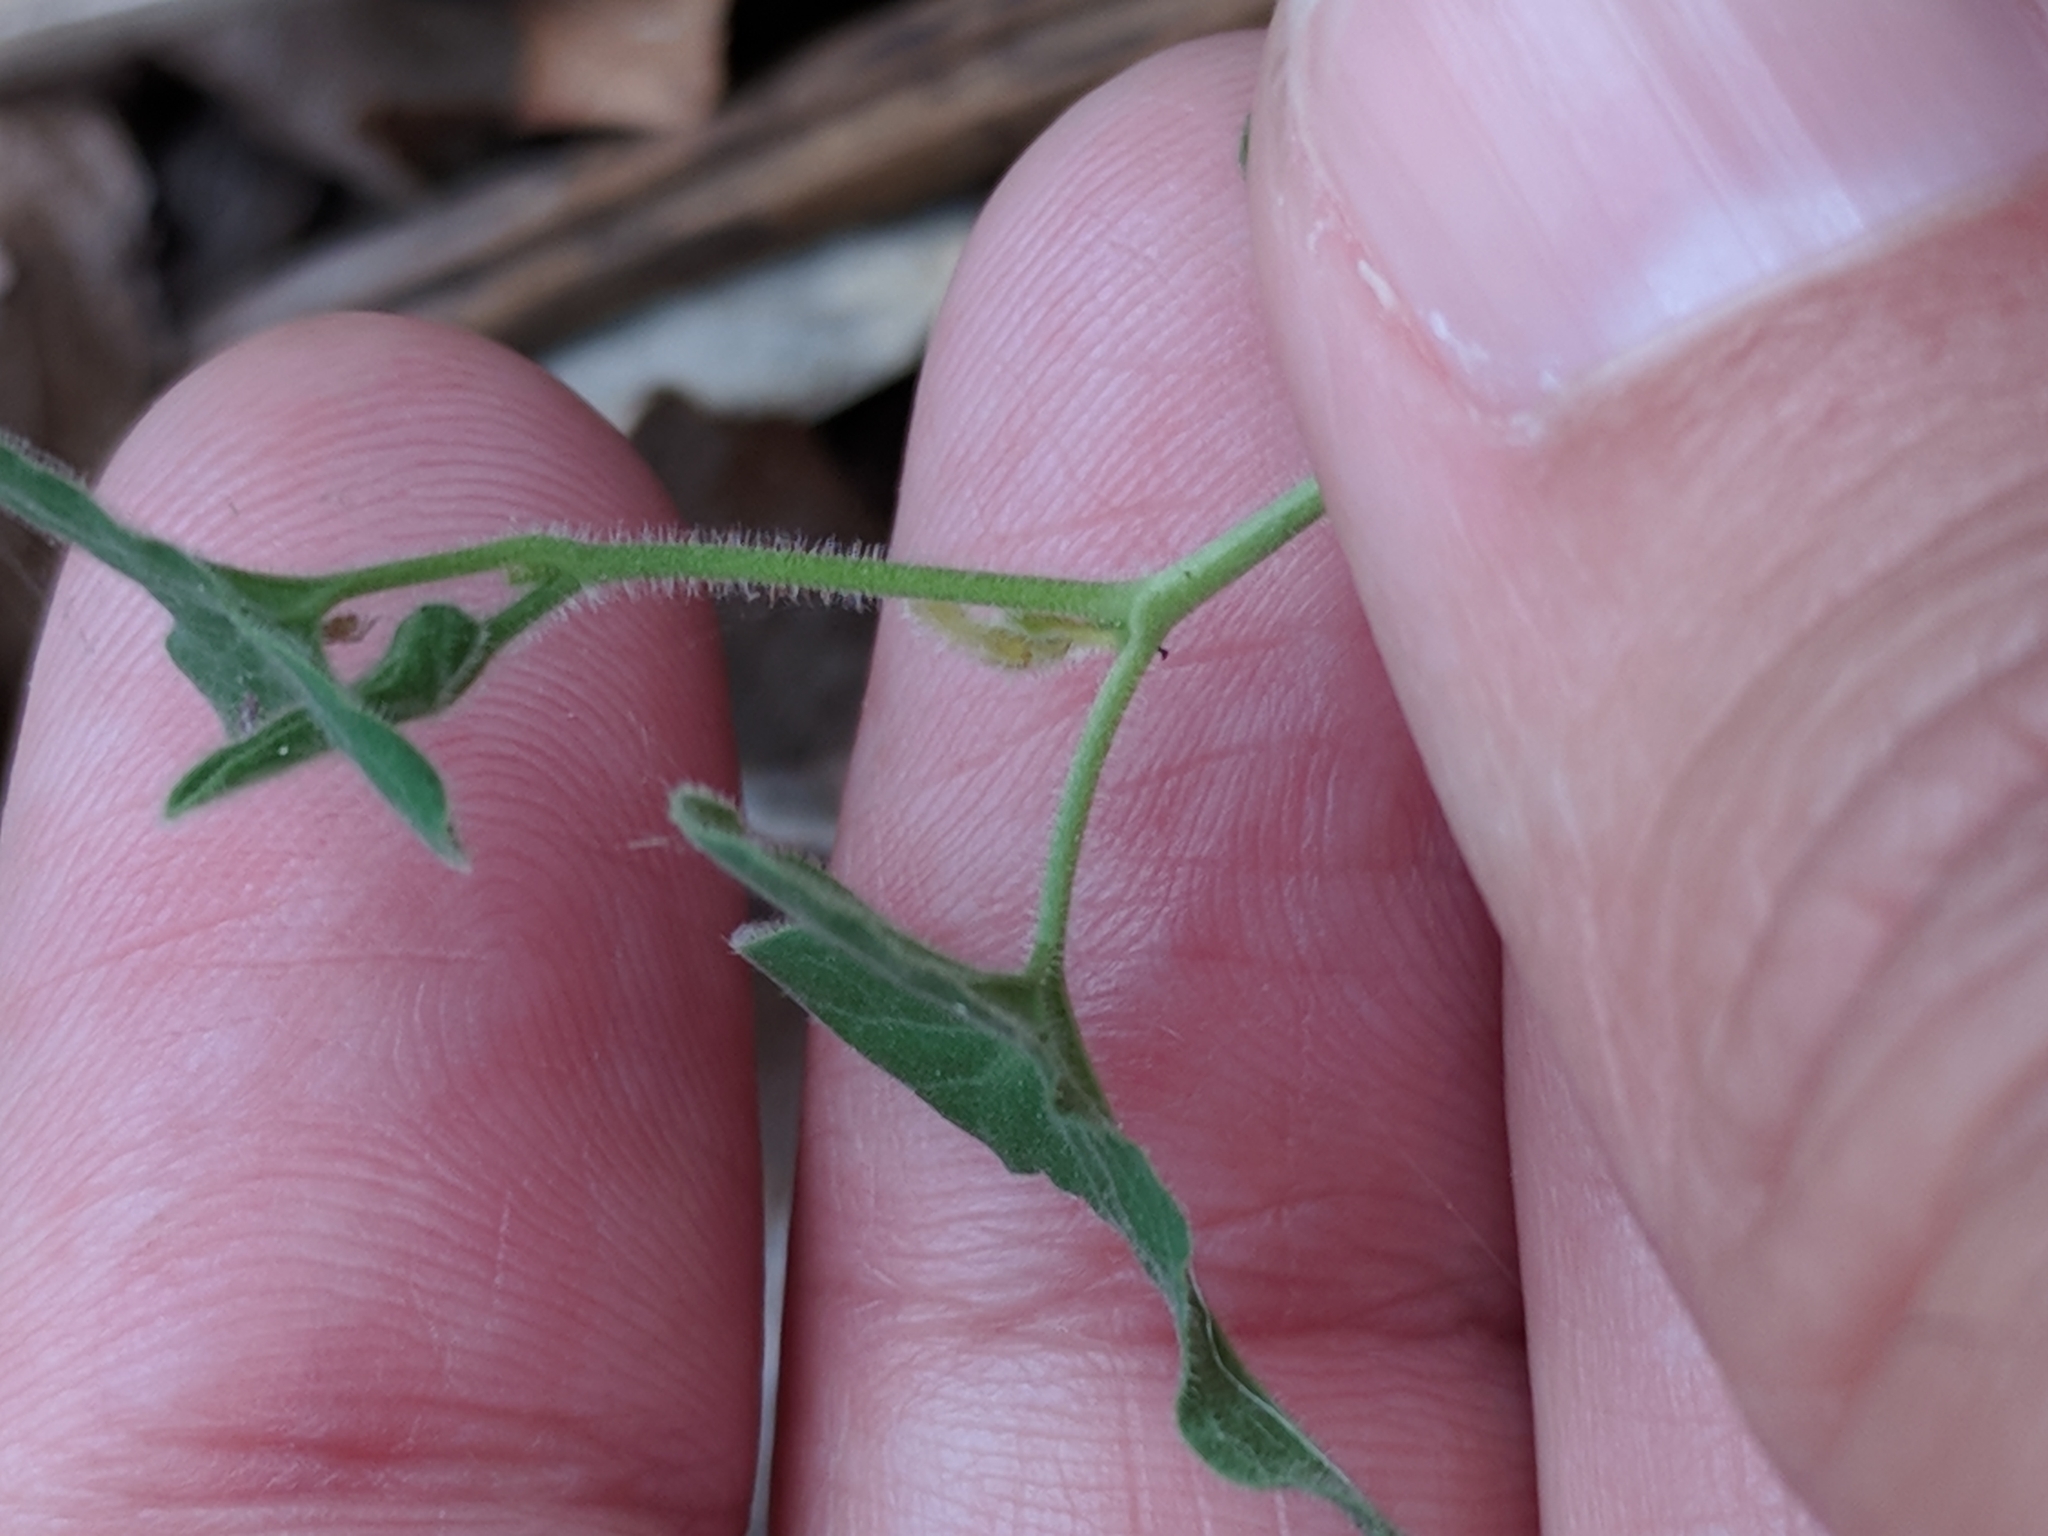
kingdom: Plantae
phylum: Tracheophyta
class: Magnoliopsida
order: Piperales
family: Aristolochiaceae
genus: Aristolochia
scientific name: Aristolochia coryi
